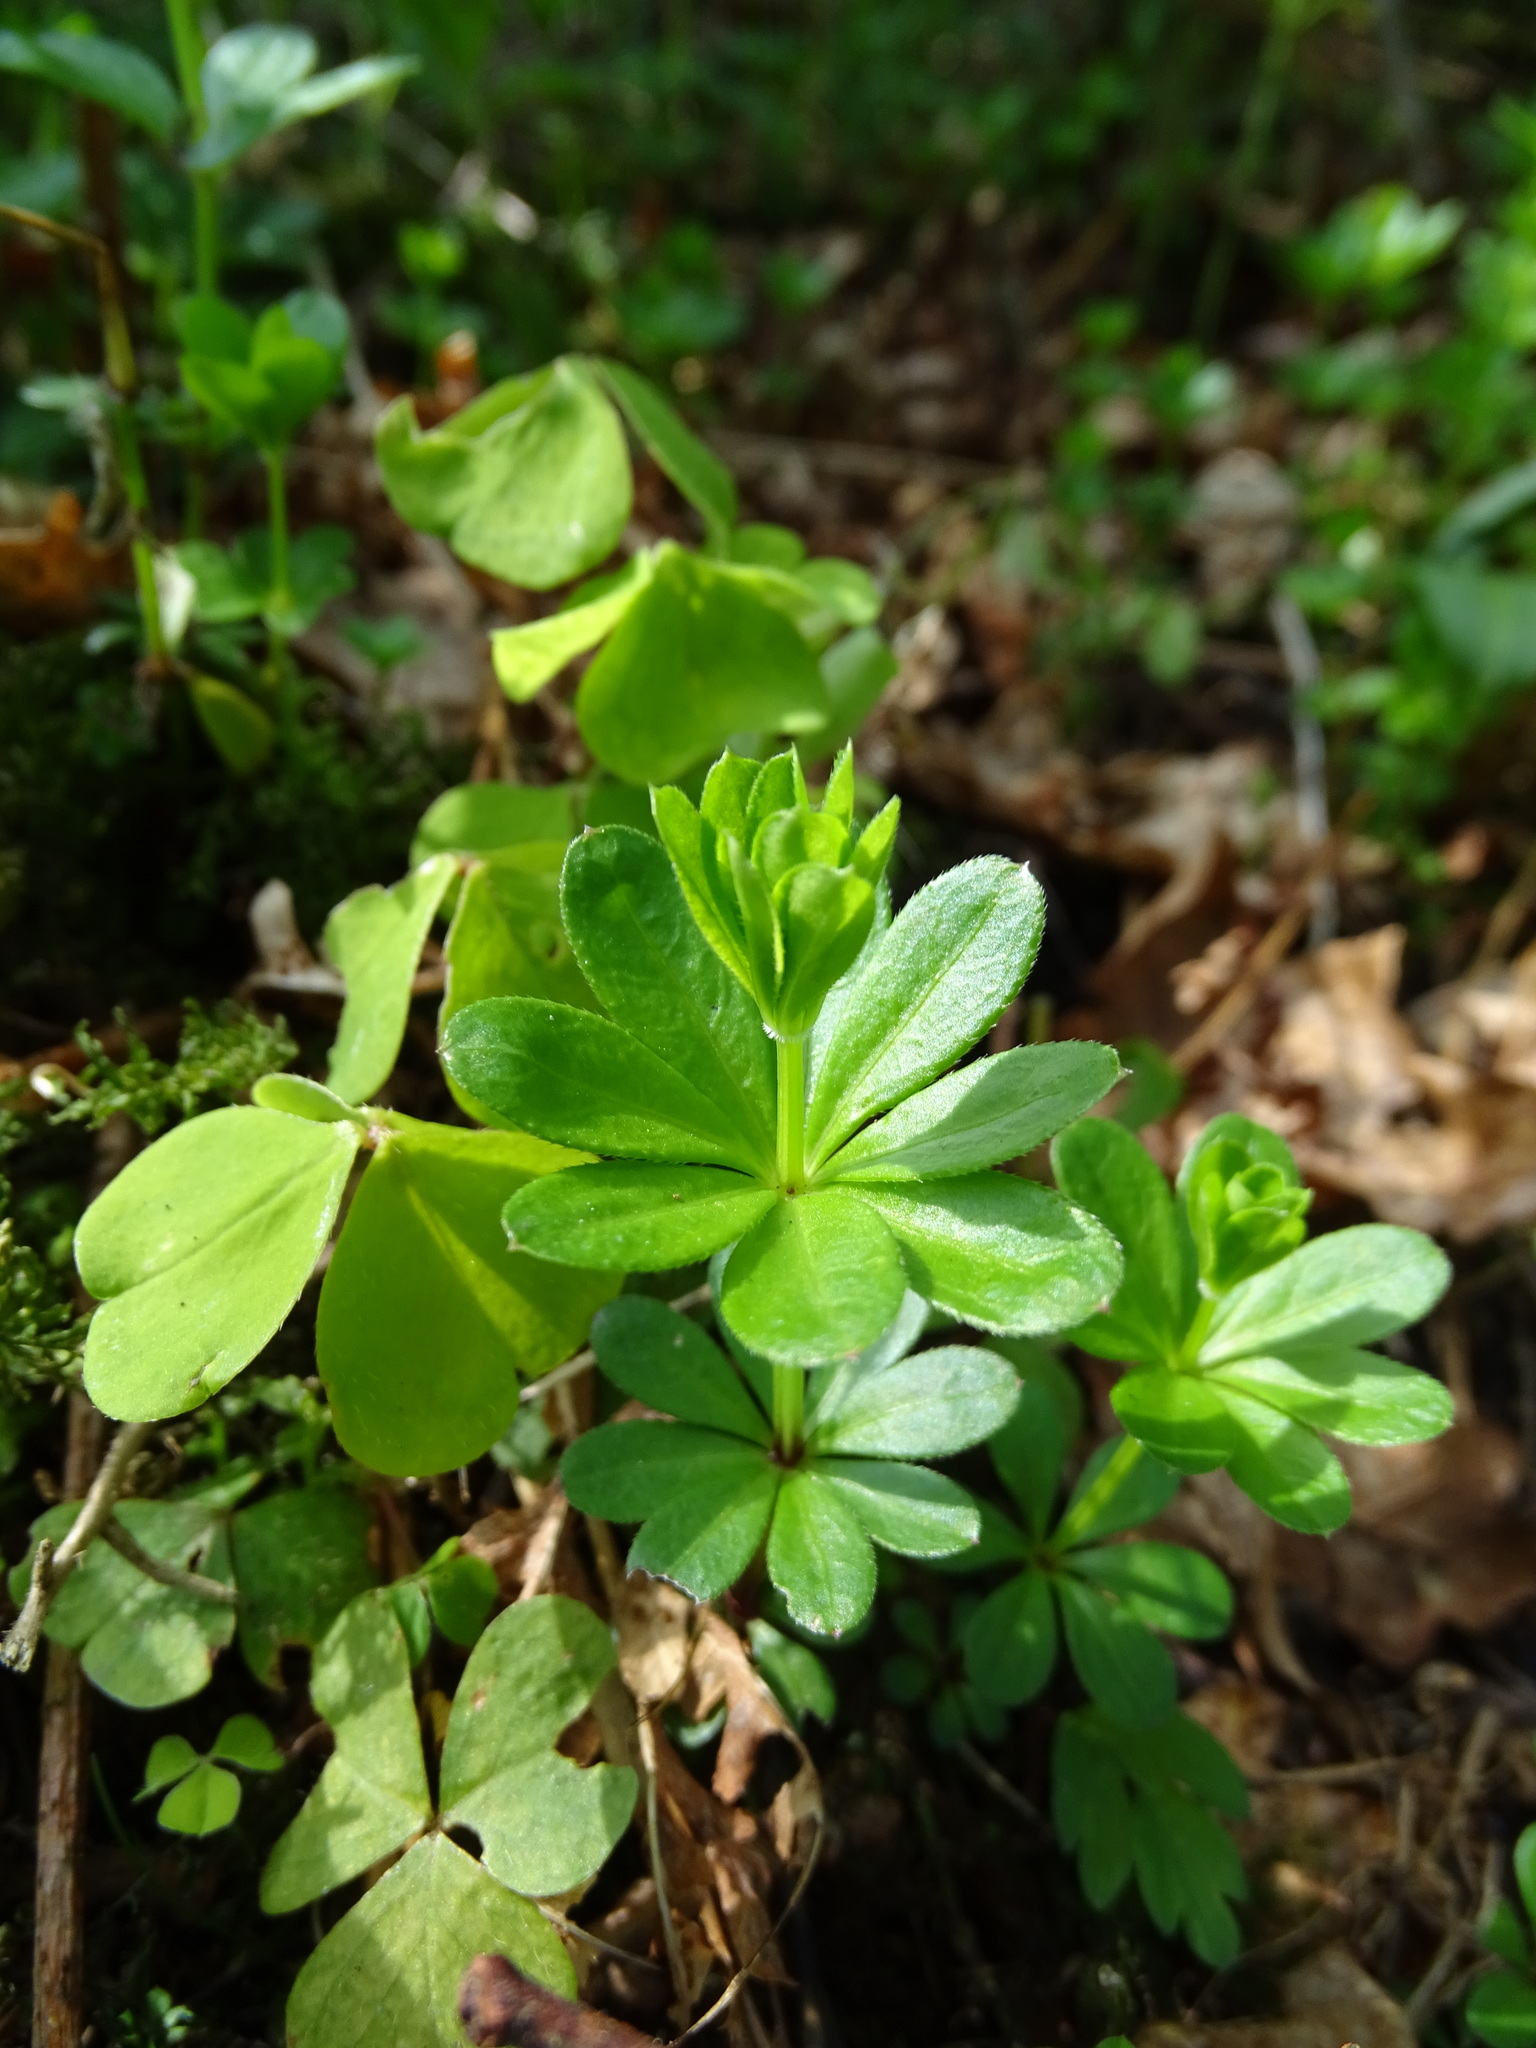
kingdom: Plantae
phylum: Tracheophyta
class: Magnoliopsida
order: Gentianales
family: Rubiaceae
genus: Galium
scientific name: Galium odoratum
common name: Sweet woodruff
